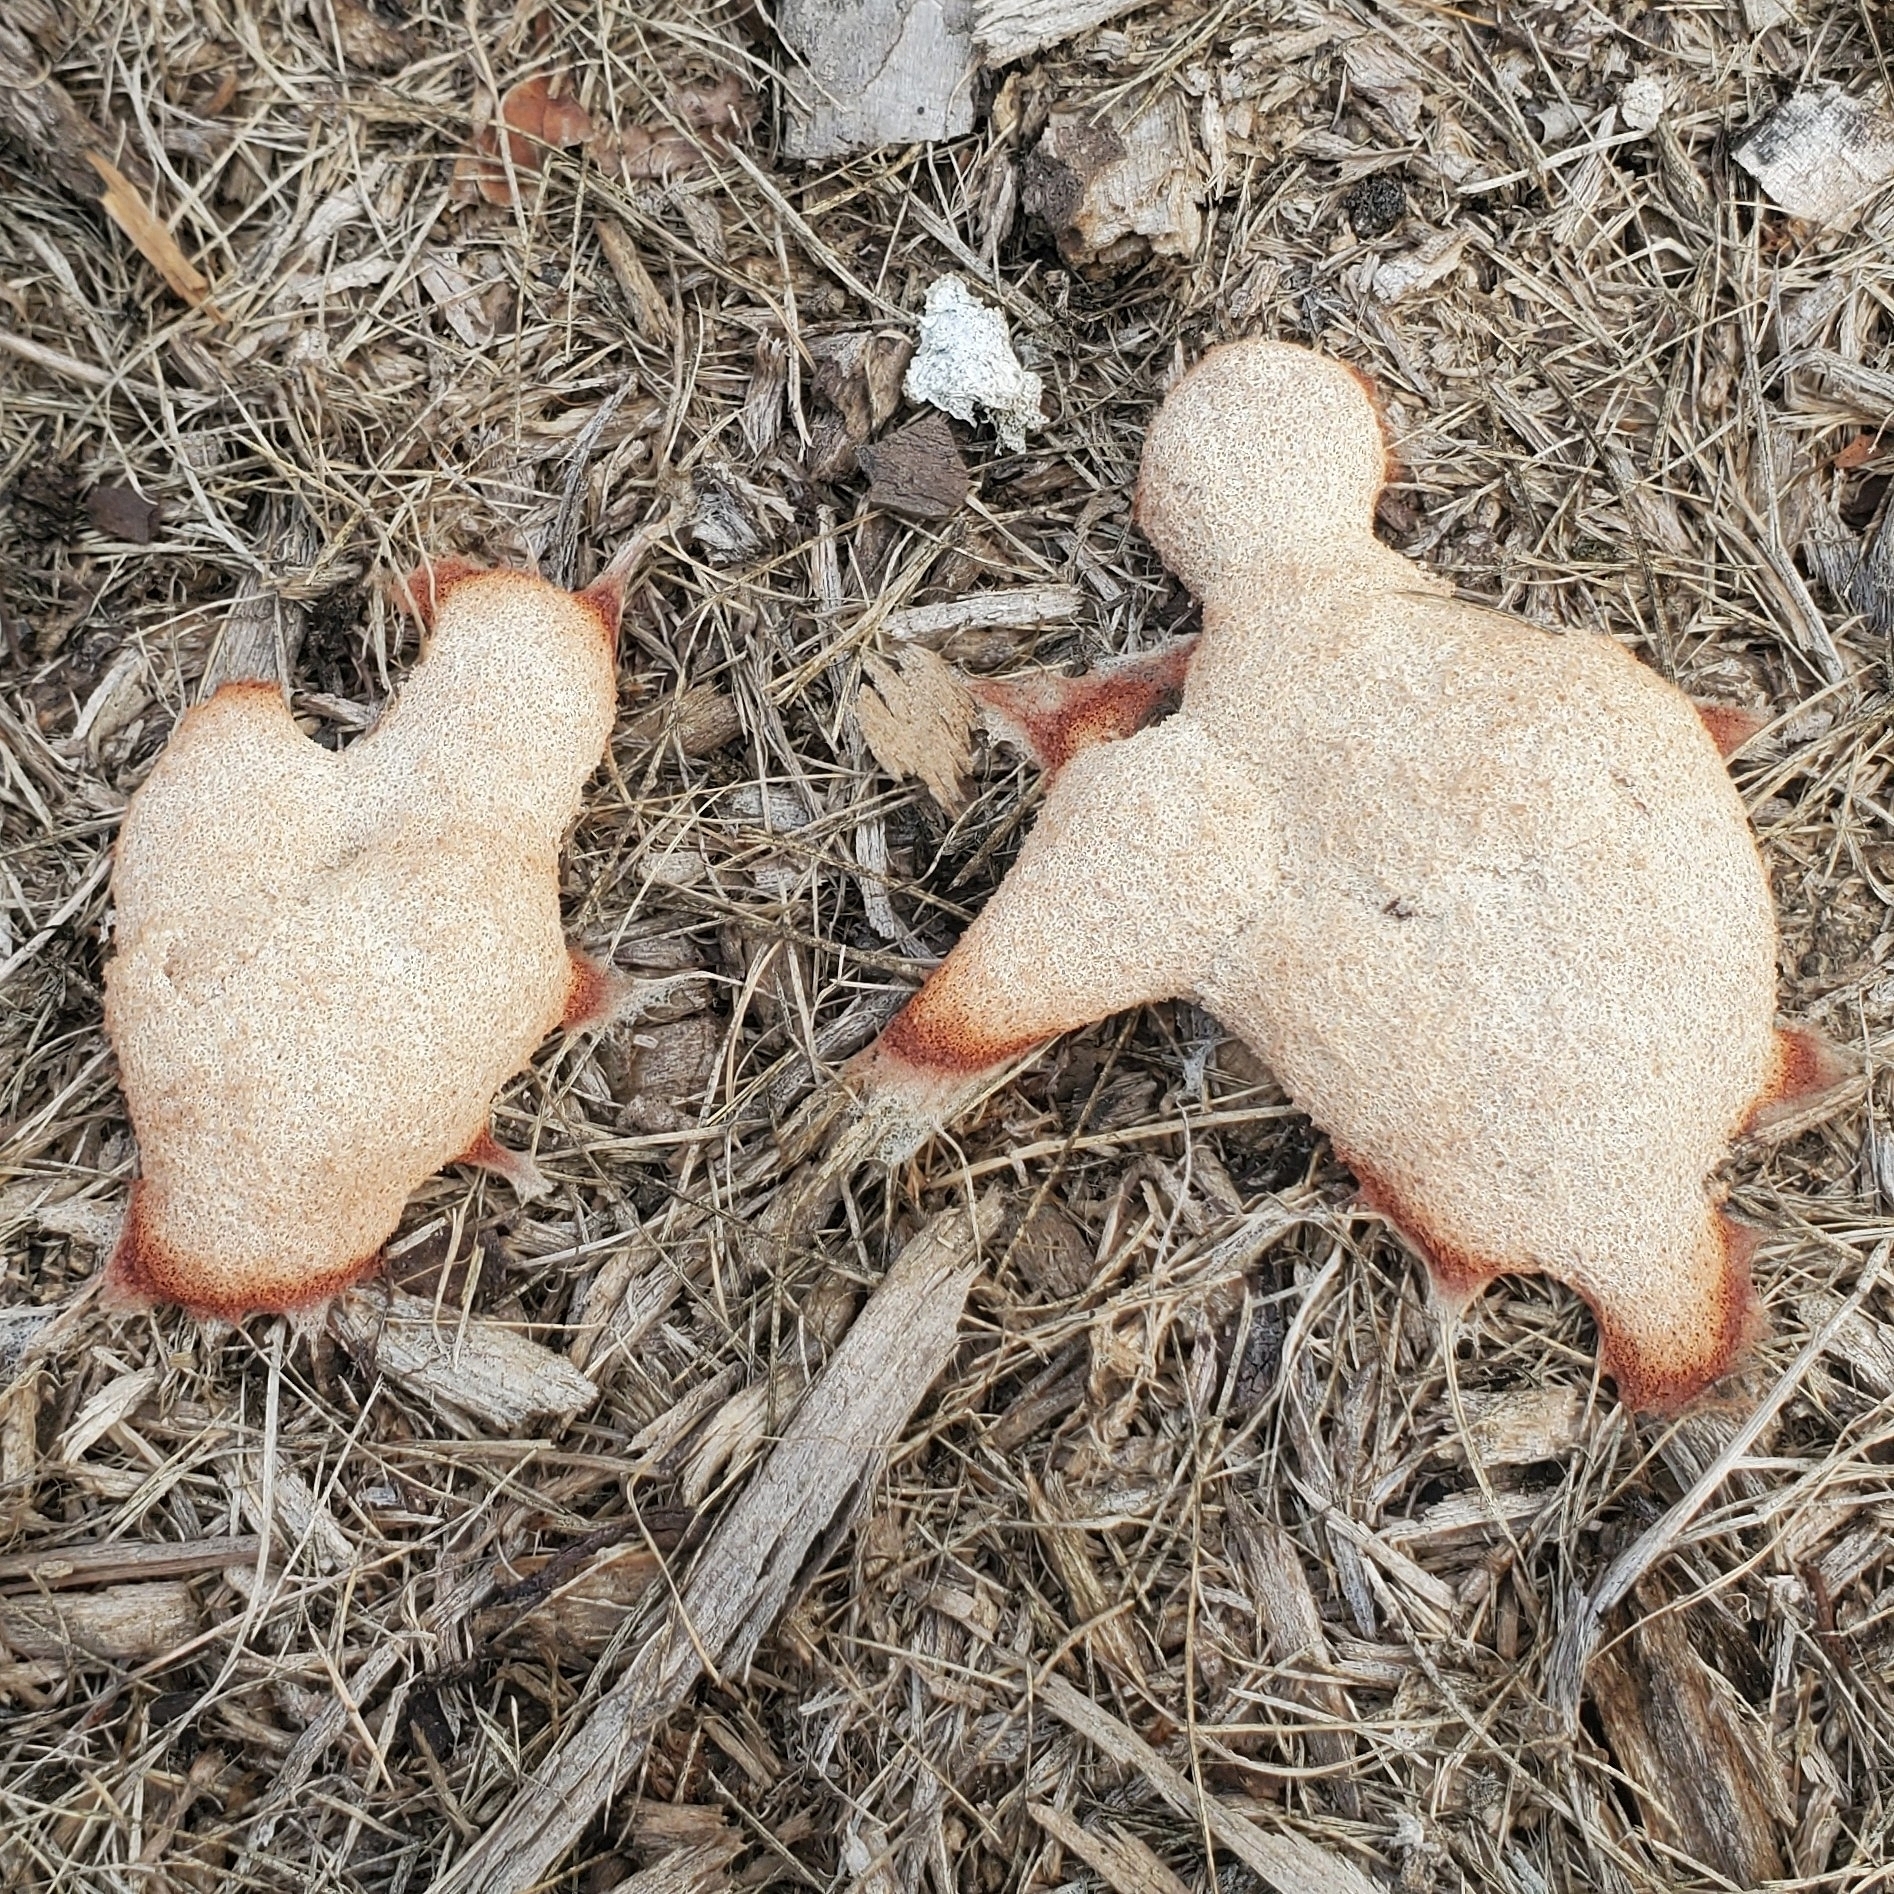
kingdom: Protozoa
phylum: Mycetozoa
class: Myxomycetes
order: Physarales
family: Physaraceae
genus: Fuligo
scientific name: Fuligo septica
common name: Dog vomit slime mold
